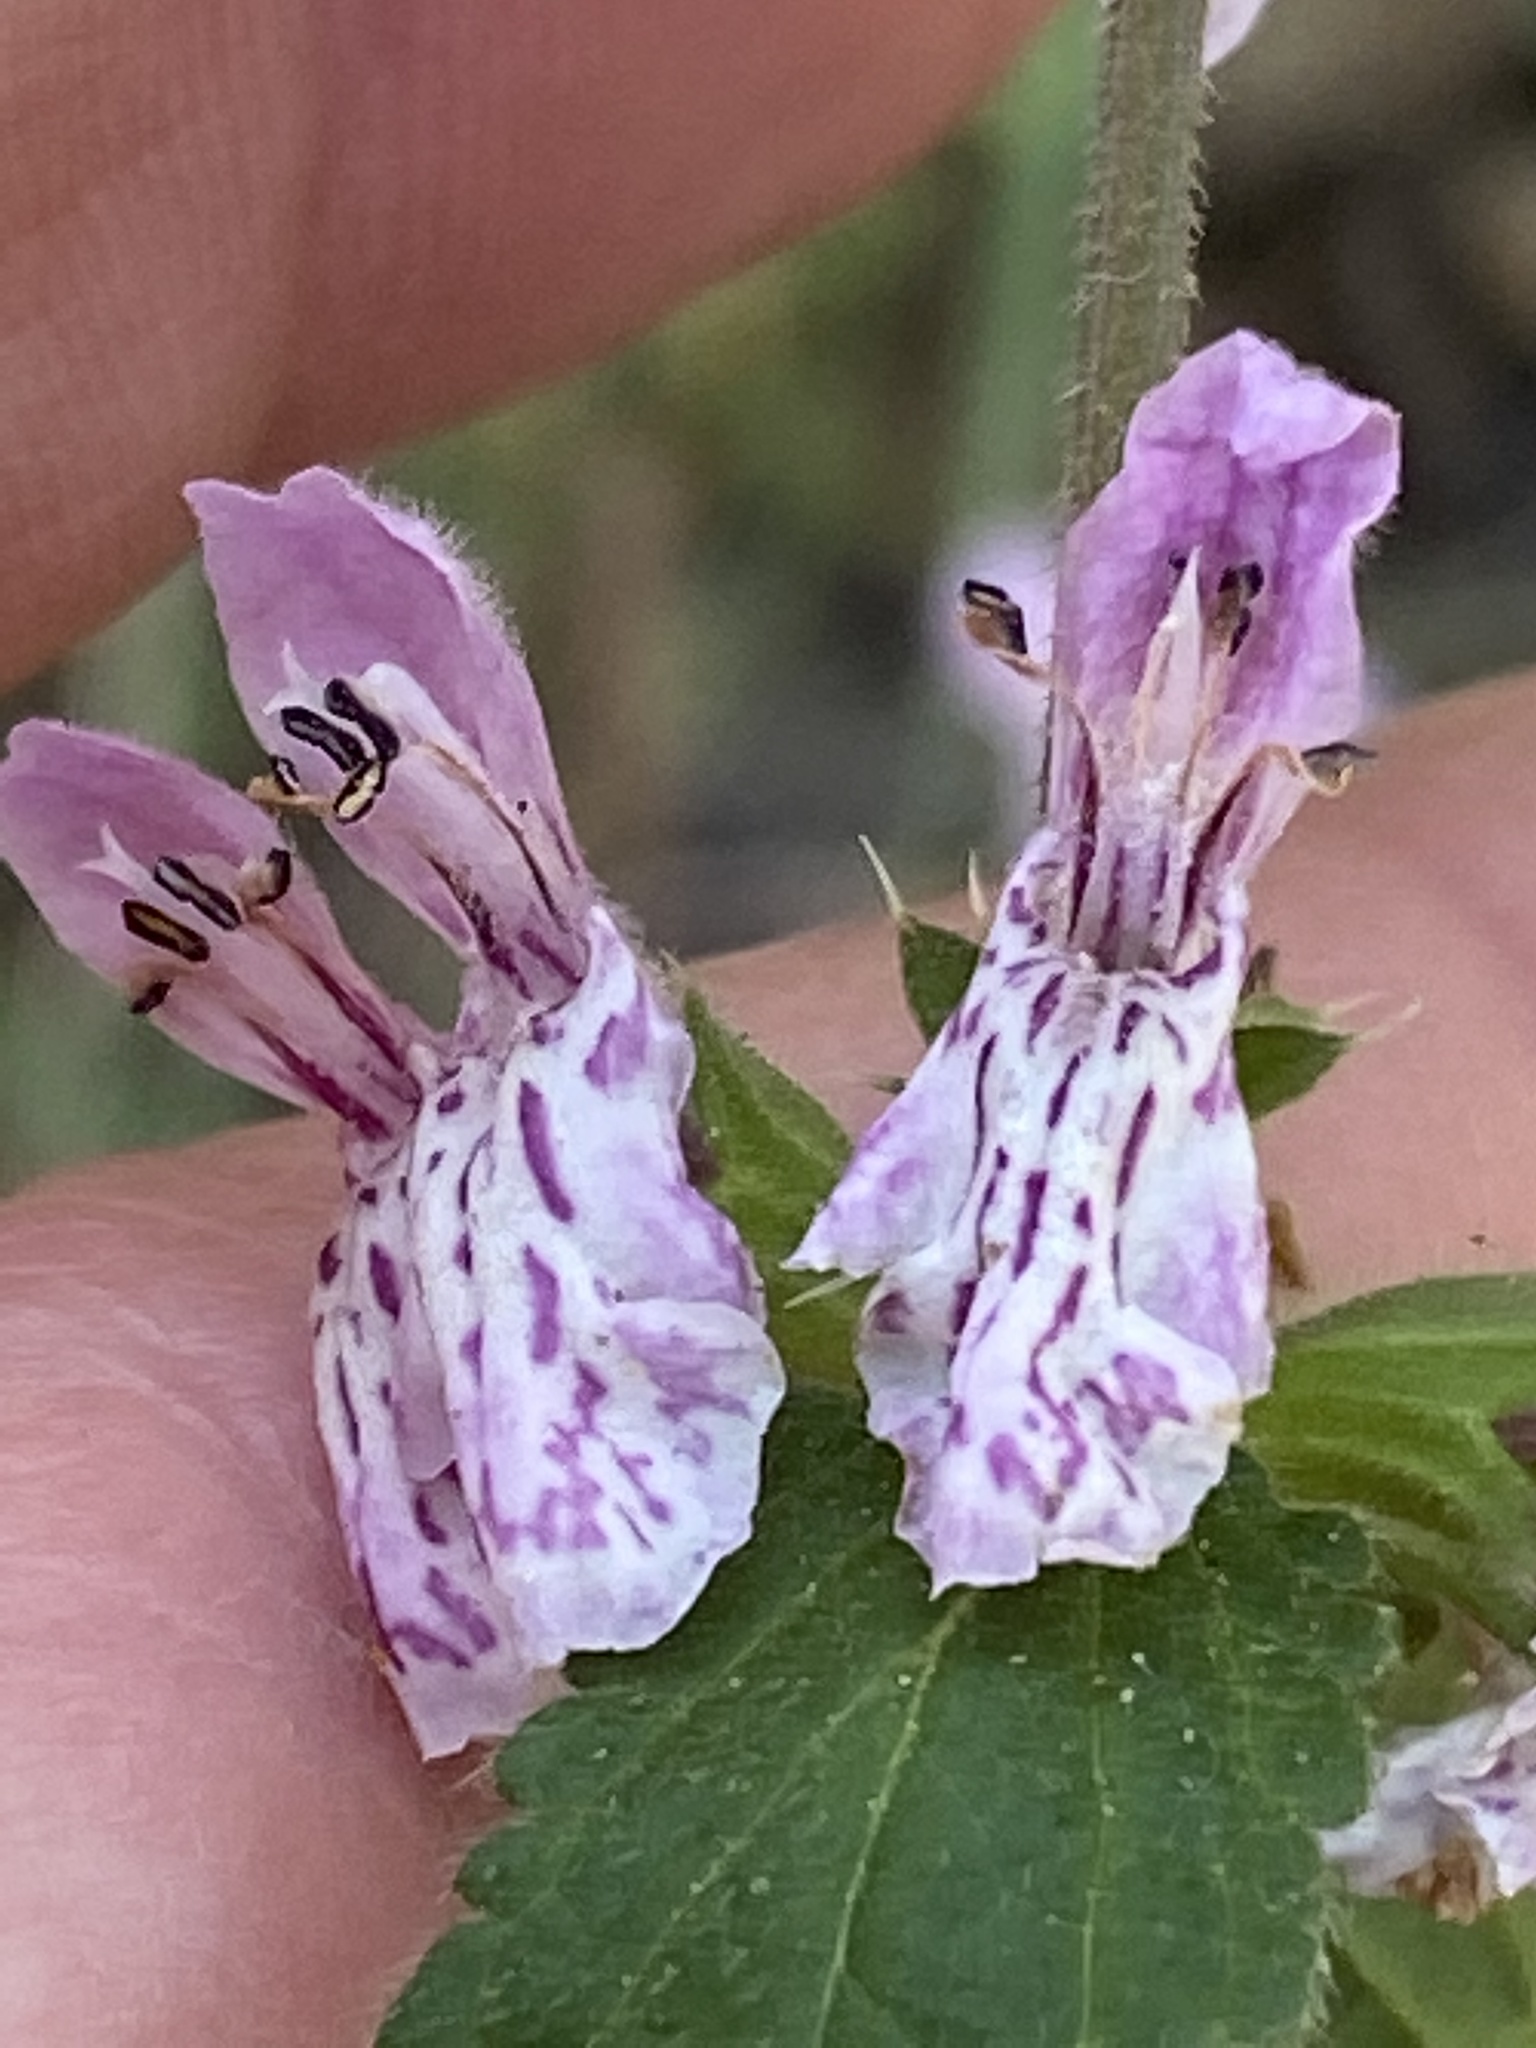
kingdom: Plantae
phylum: Tracheophyta
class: Magnoliopsida
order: Lamiales
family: Lamiaceae
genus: Stachys
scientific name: Stachys rigida
